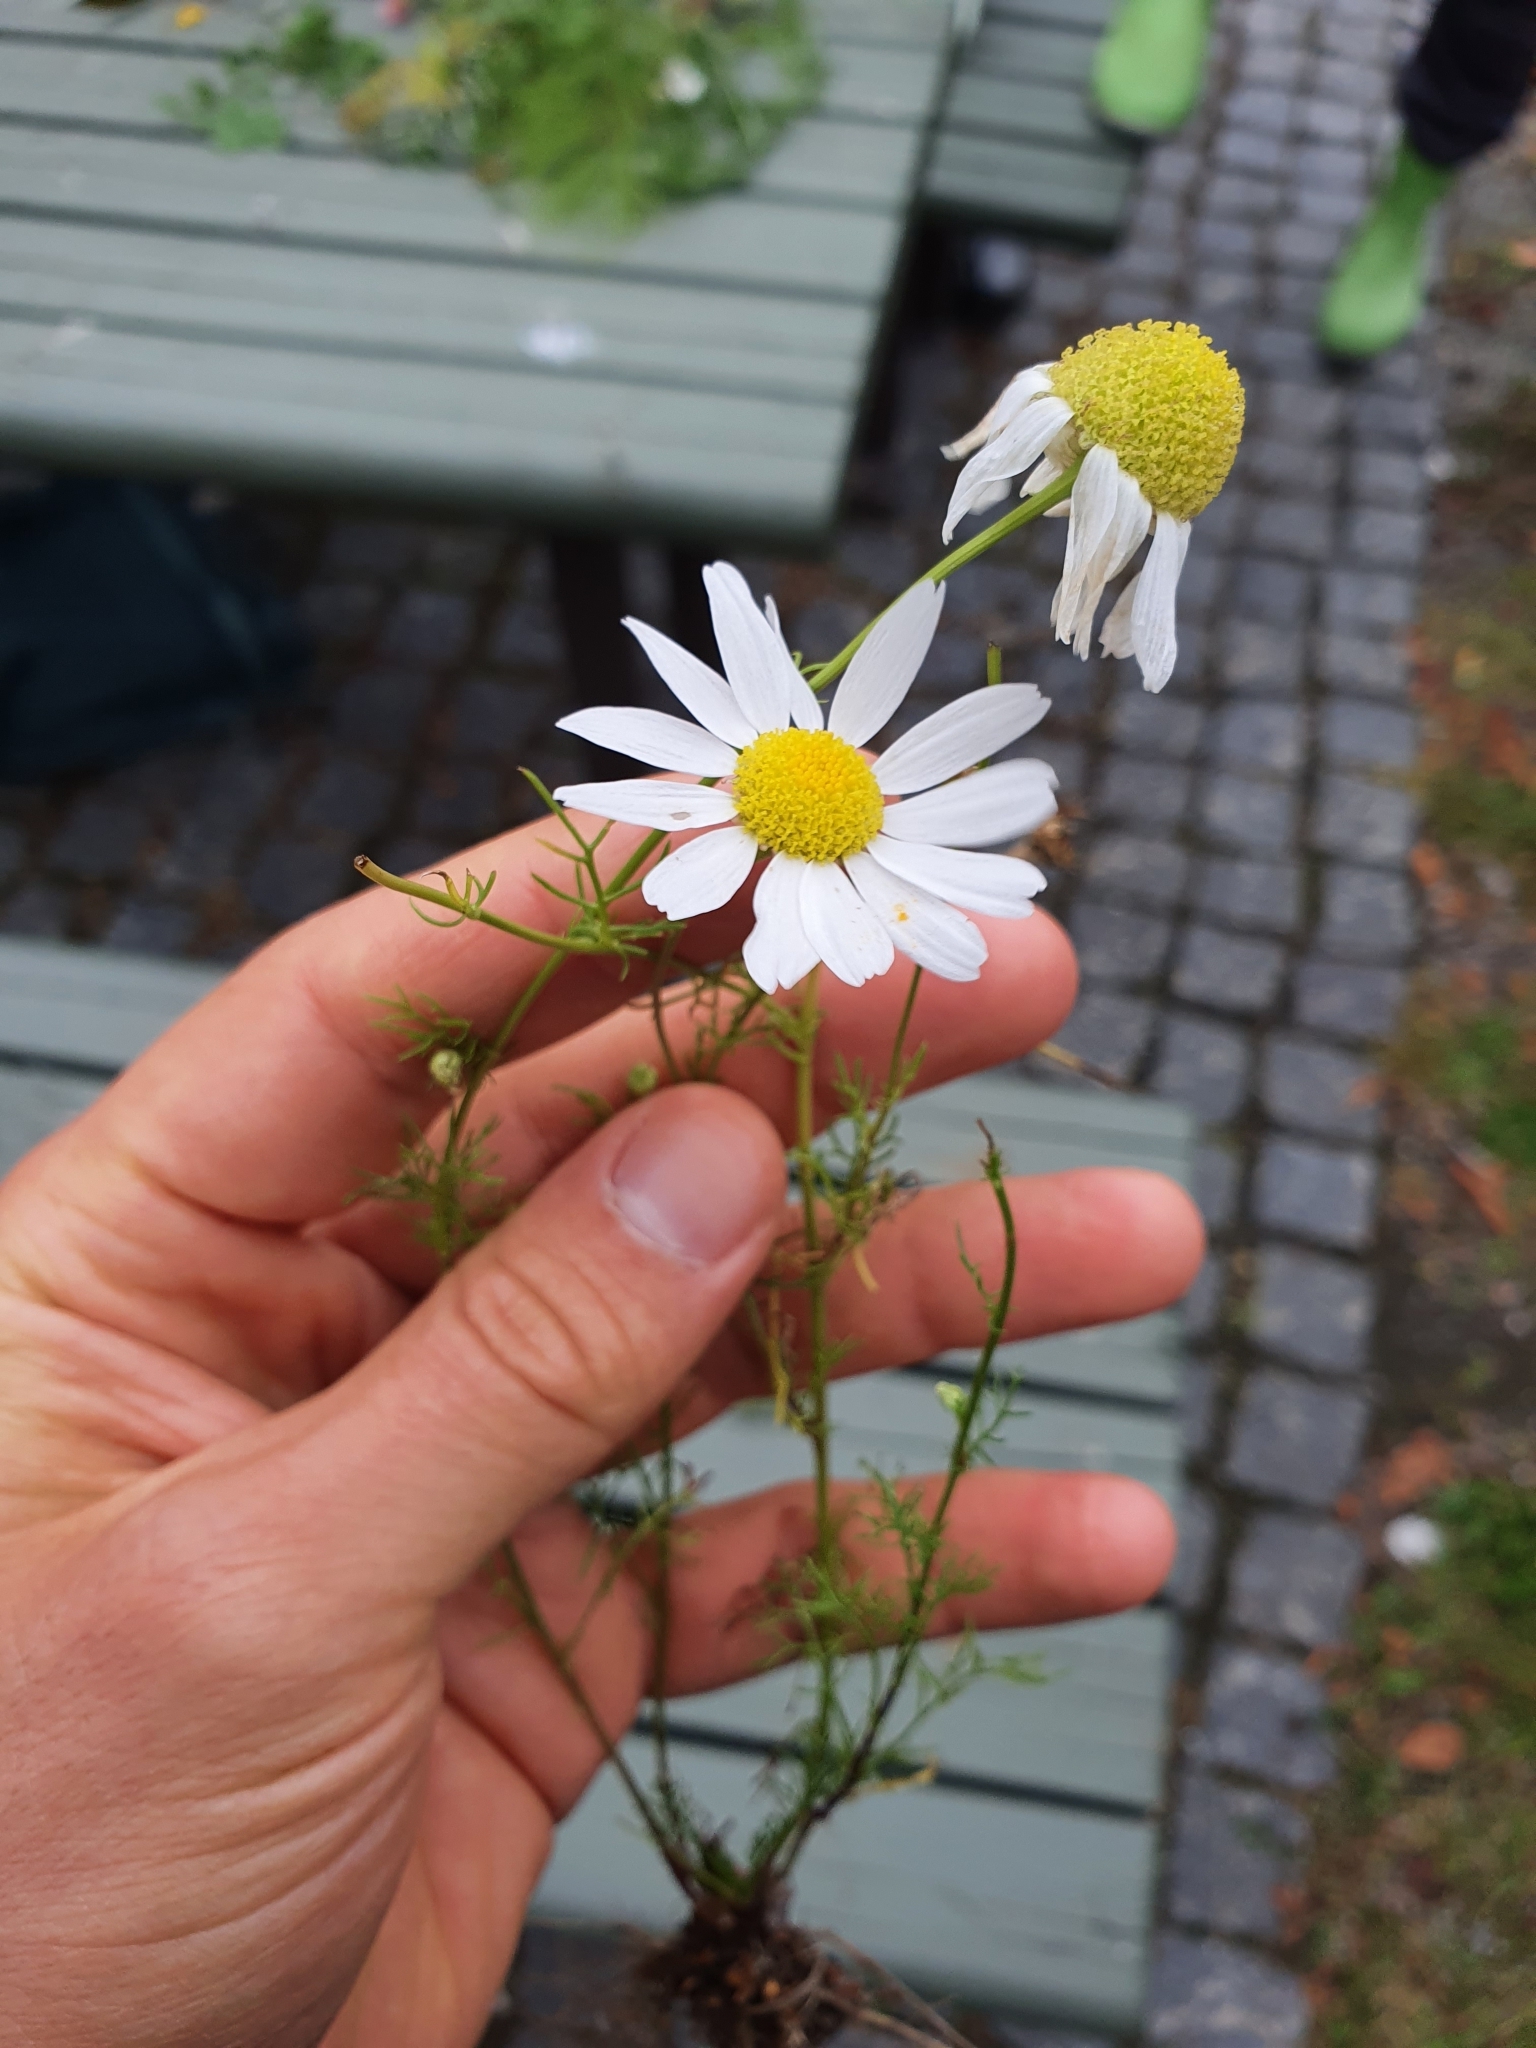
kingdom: Plantae
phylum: Tracheophyta
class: Magnoliopsida
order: Asterales
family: Asteraceae
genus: Tripleurospermum
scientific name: Tripleurospermum inodorum
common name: Scentless mayweed
